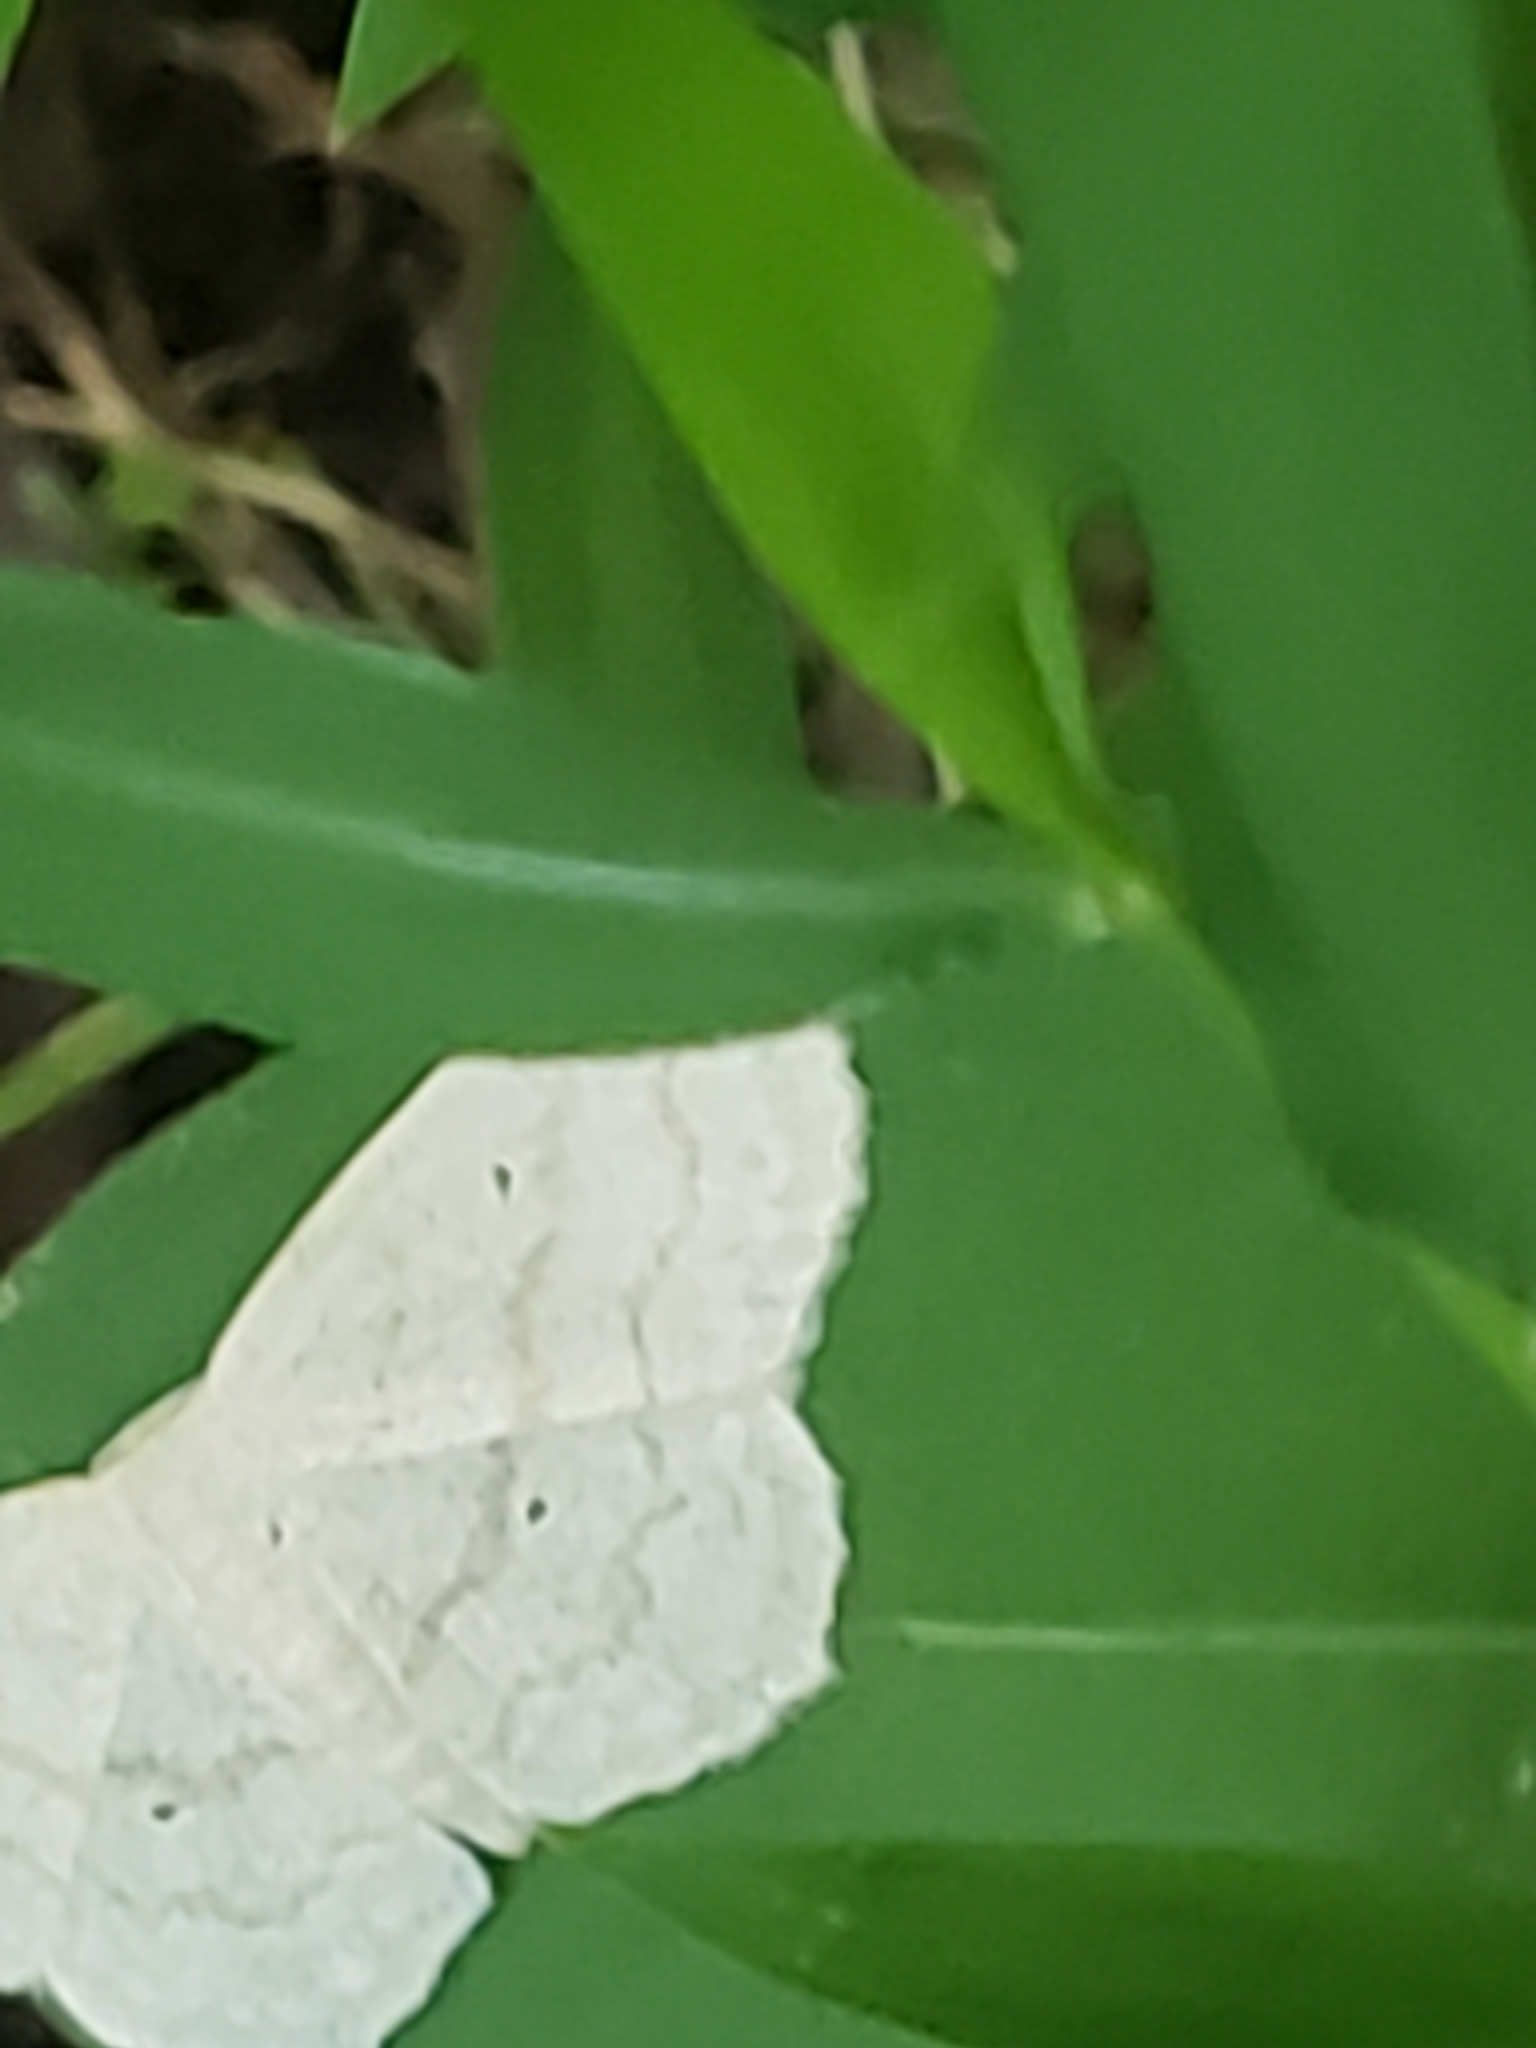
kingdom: Animalia
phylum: Arthropoda
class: Insecta
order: Lepidoptera
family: Geometridae
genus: Scopula
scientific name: Scopula limboundata
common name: Large lace border
